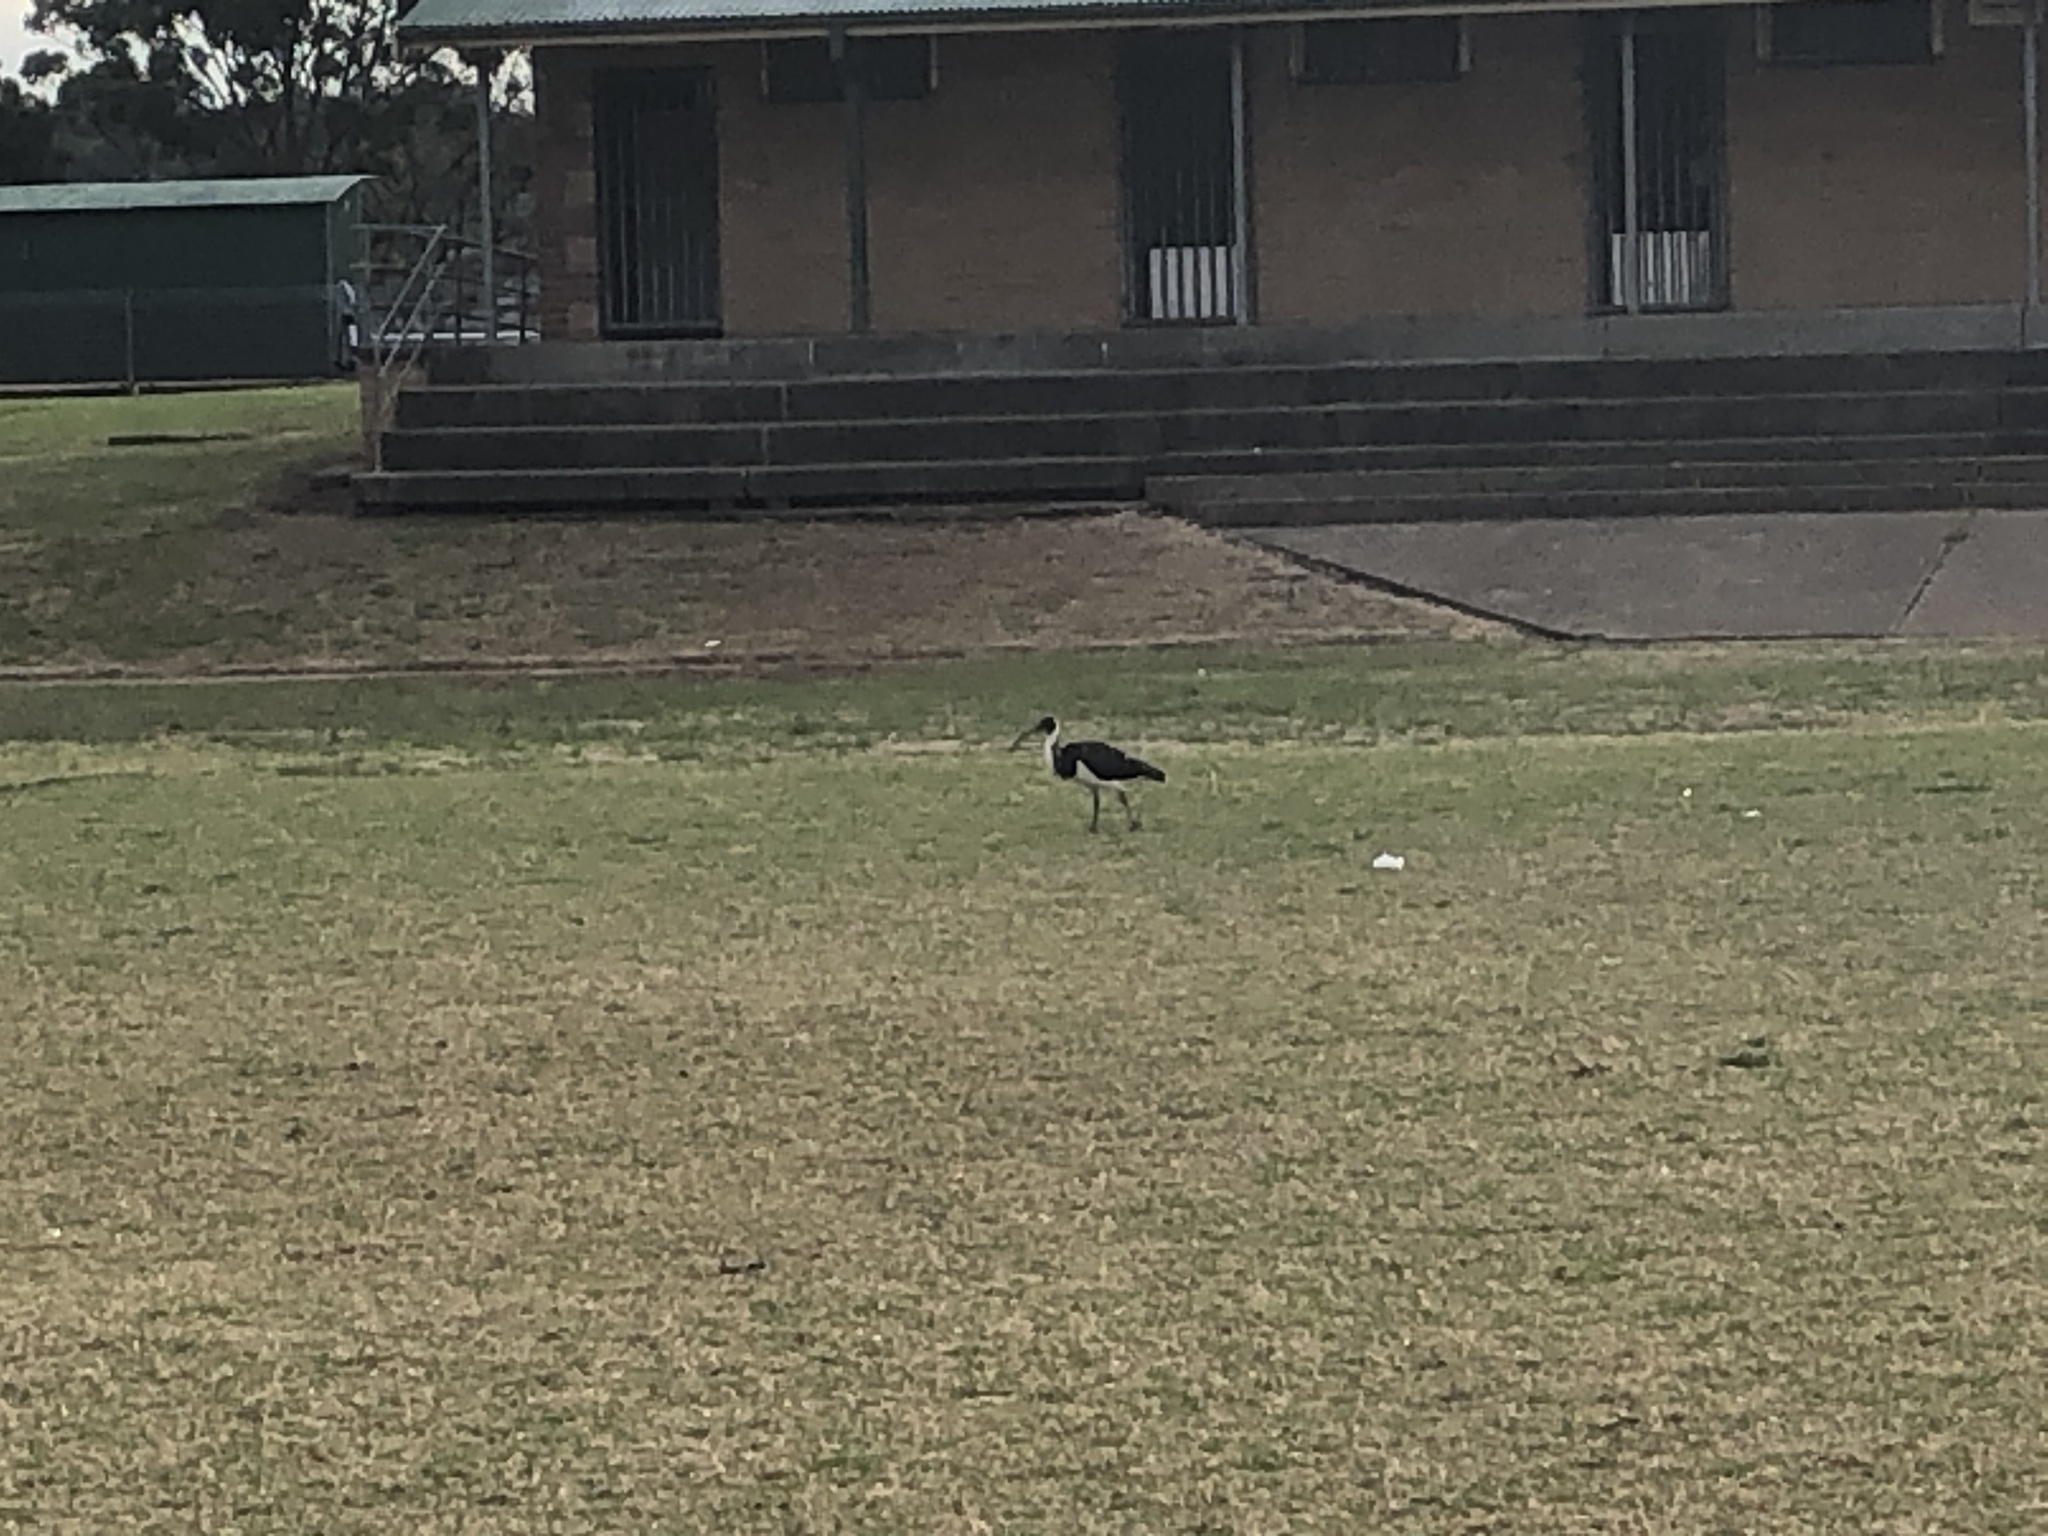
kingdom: Animalia
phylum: Chordata
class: Aves
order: Pelecaniformes
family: Threskiornithidae
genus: Threskiornis
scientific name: Threskiornis spinicollis
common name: Straw-necked ibis
